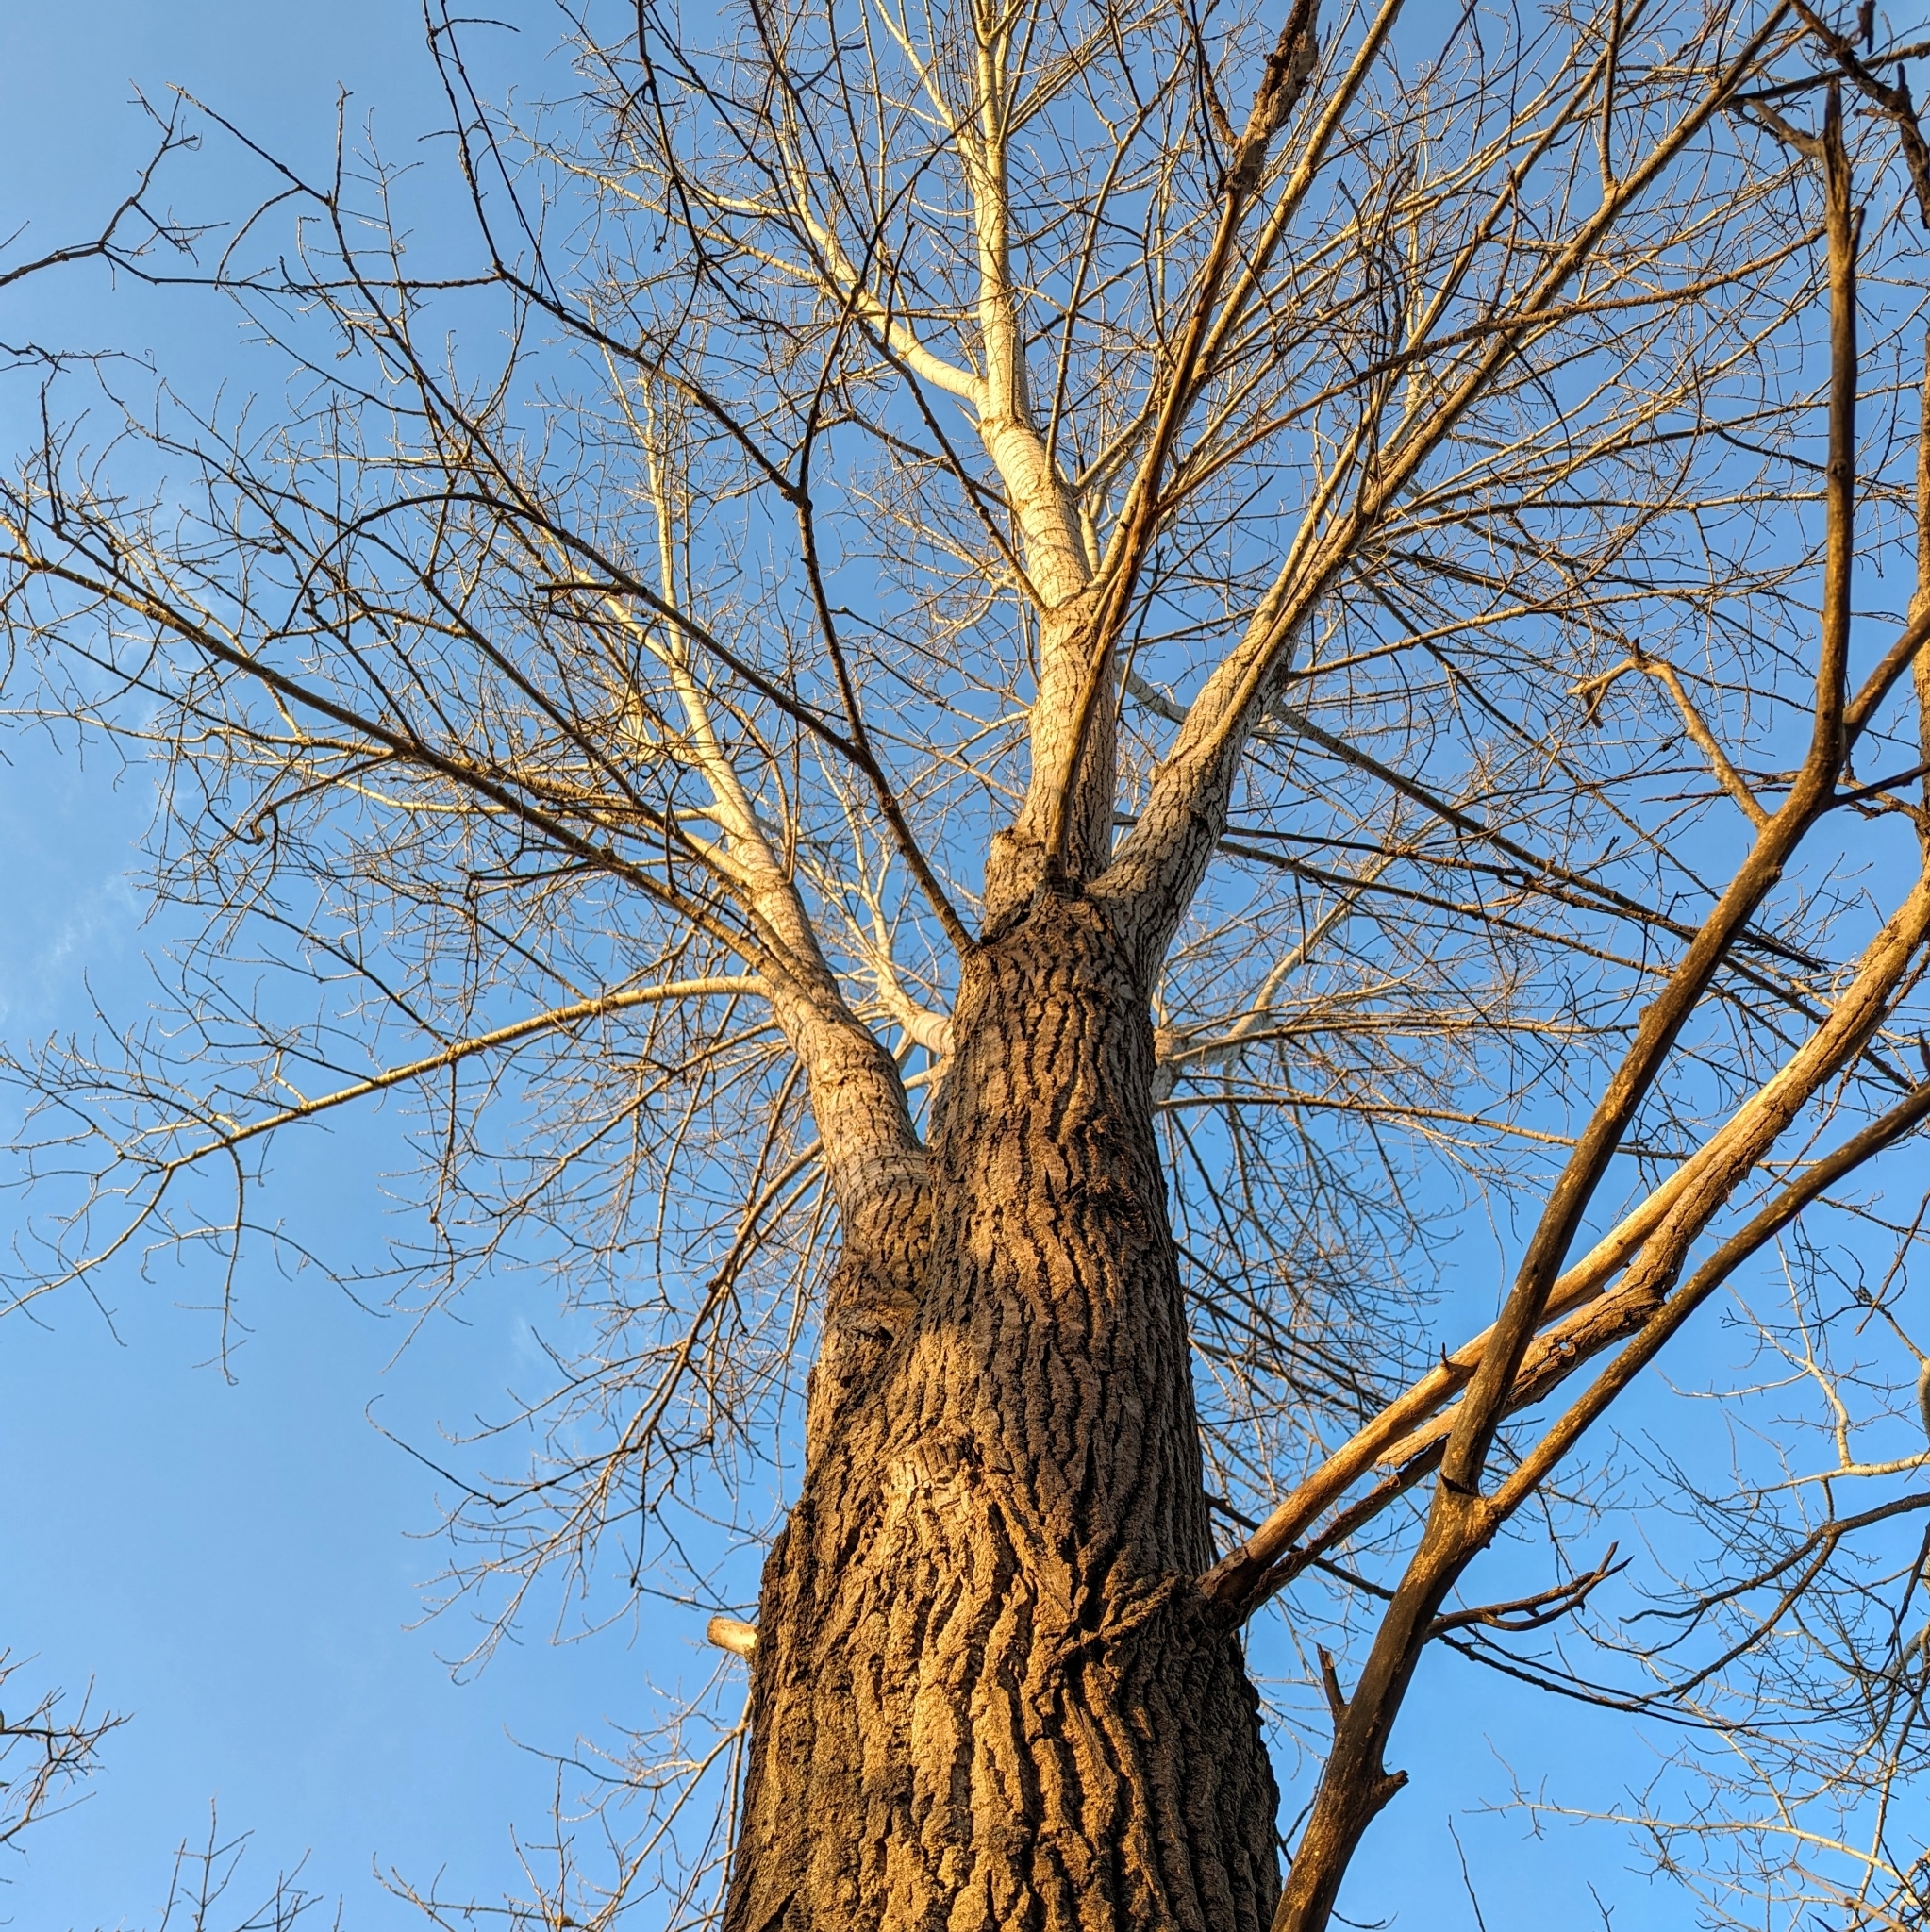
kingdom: Plantae
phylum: Tracheophyta
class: Magnoliopsida
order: Malpighiales
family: Salicaceae
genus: Populus
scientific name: Populus deltoides
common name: Eastern cottonwood
